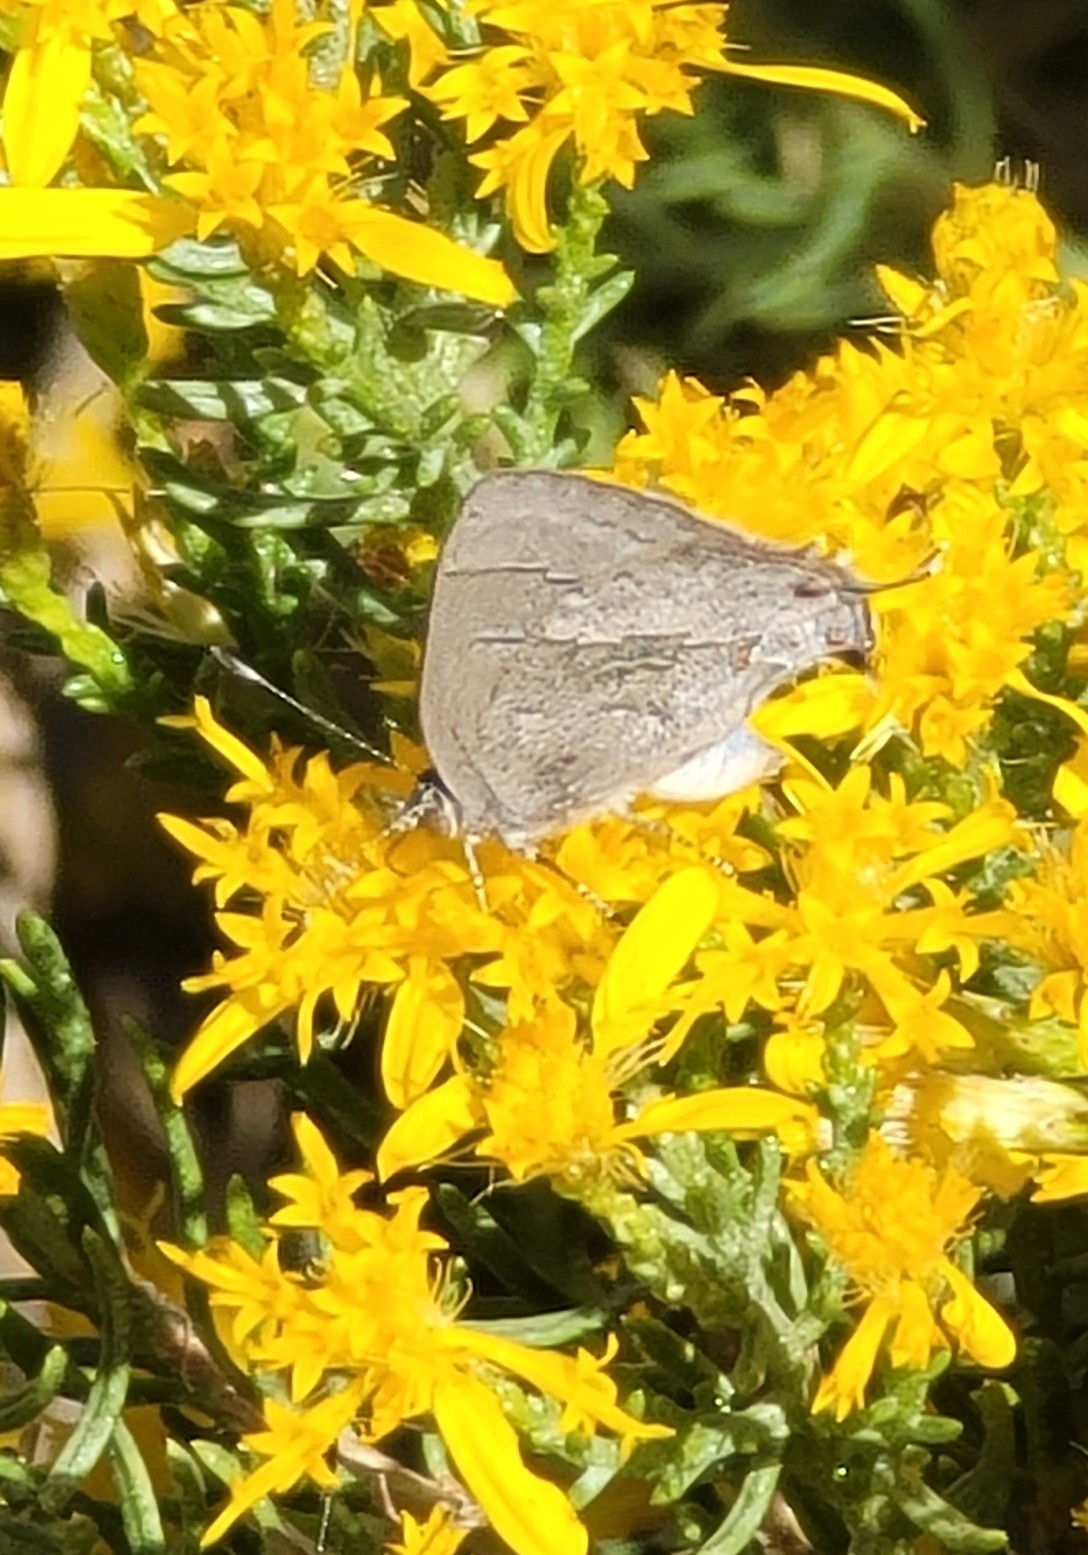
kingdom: Animalia
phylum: Arthropoda
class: Insecta
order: Lepidoptera
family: Lycaenidae
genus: Ministrymon
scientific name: Ministrymon leda
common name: Leda ministreak
